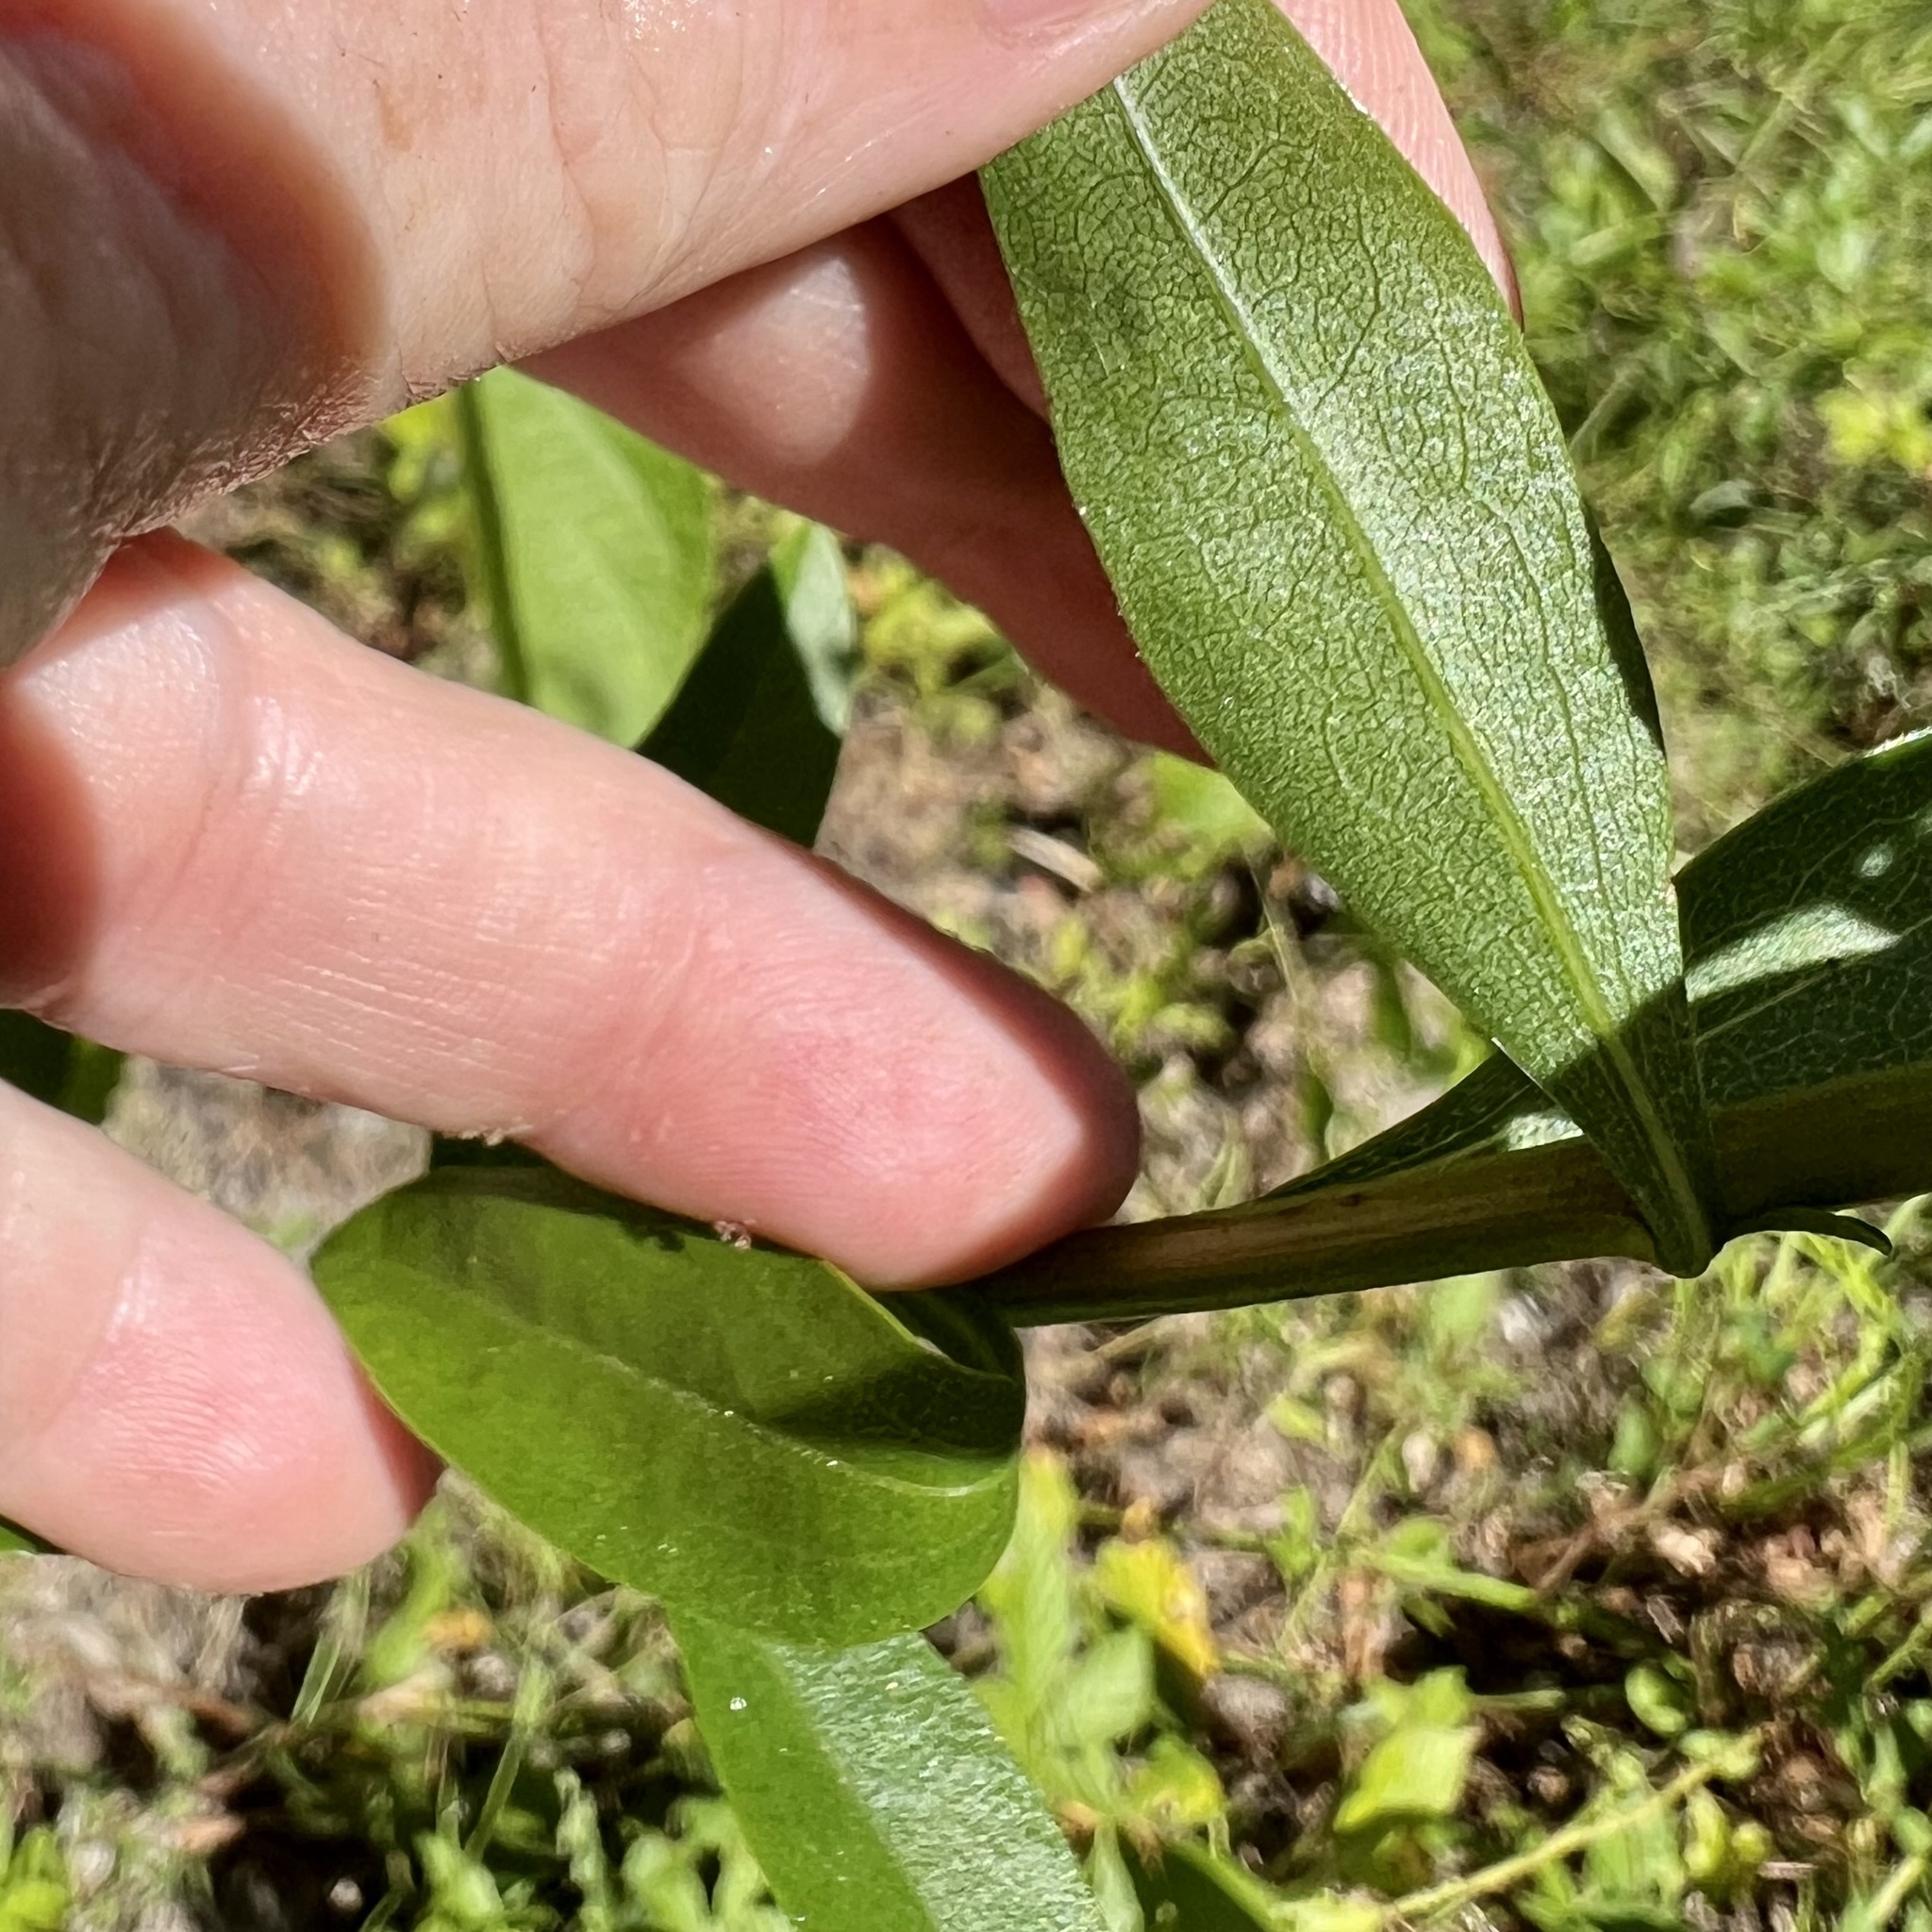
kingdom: Plantae
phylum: Tracheophyta
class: Magnoliopsida
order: Asterales
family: Asteraceae
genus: Solidago
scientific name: Solidago ulmifolia
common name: Elm-leaf goldenrod
